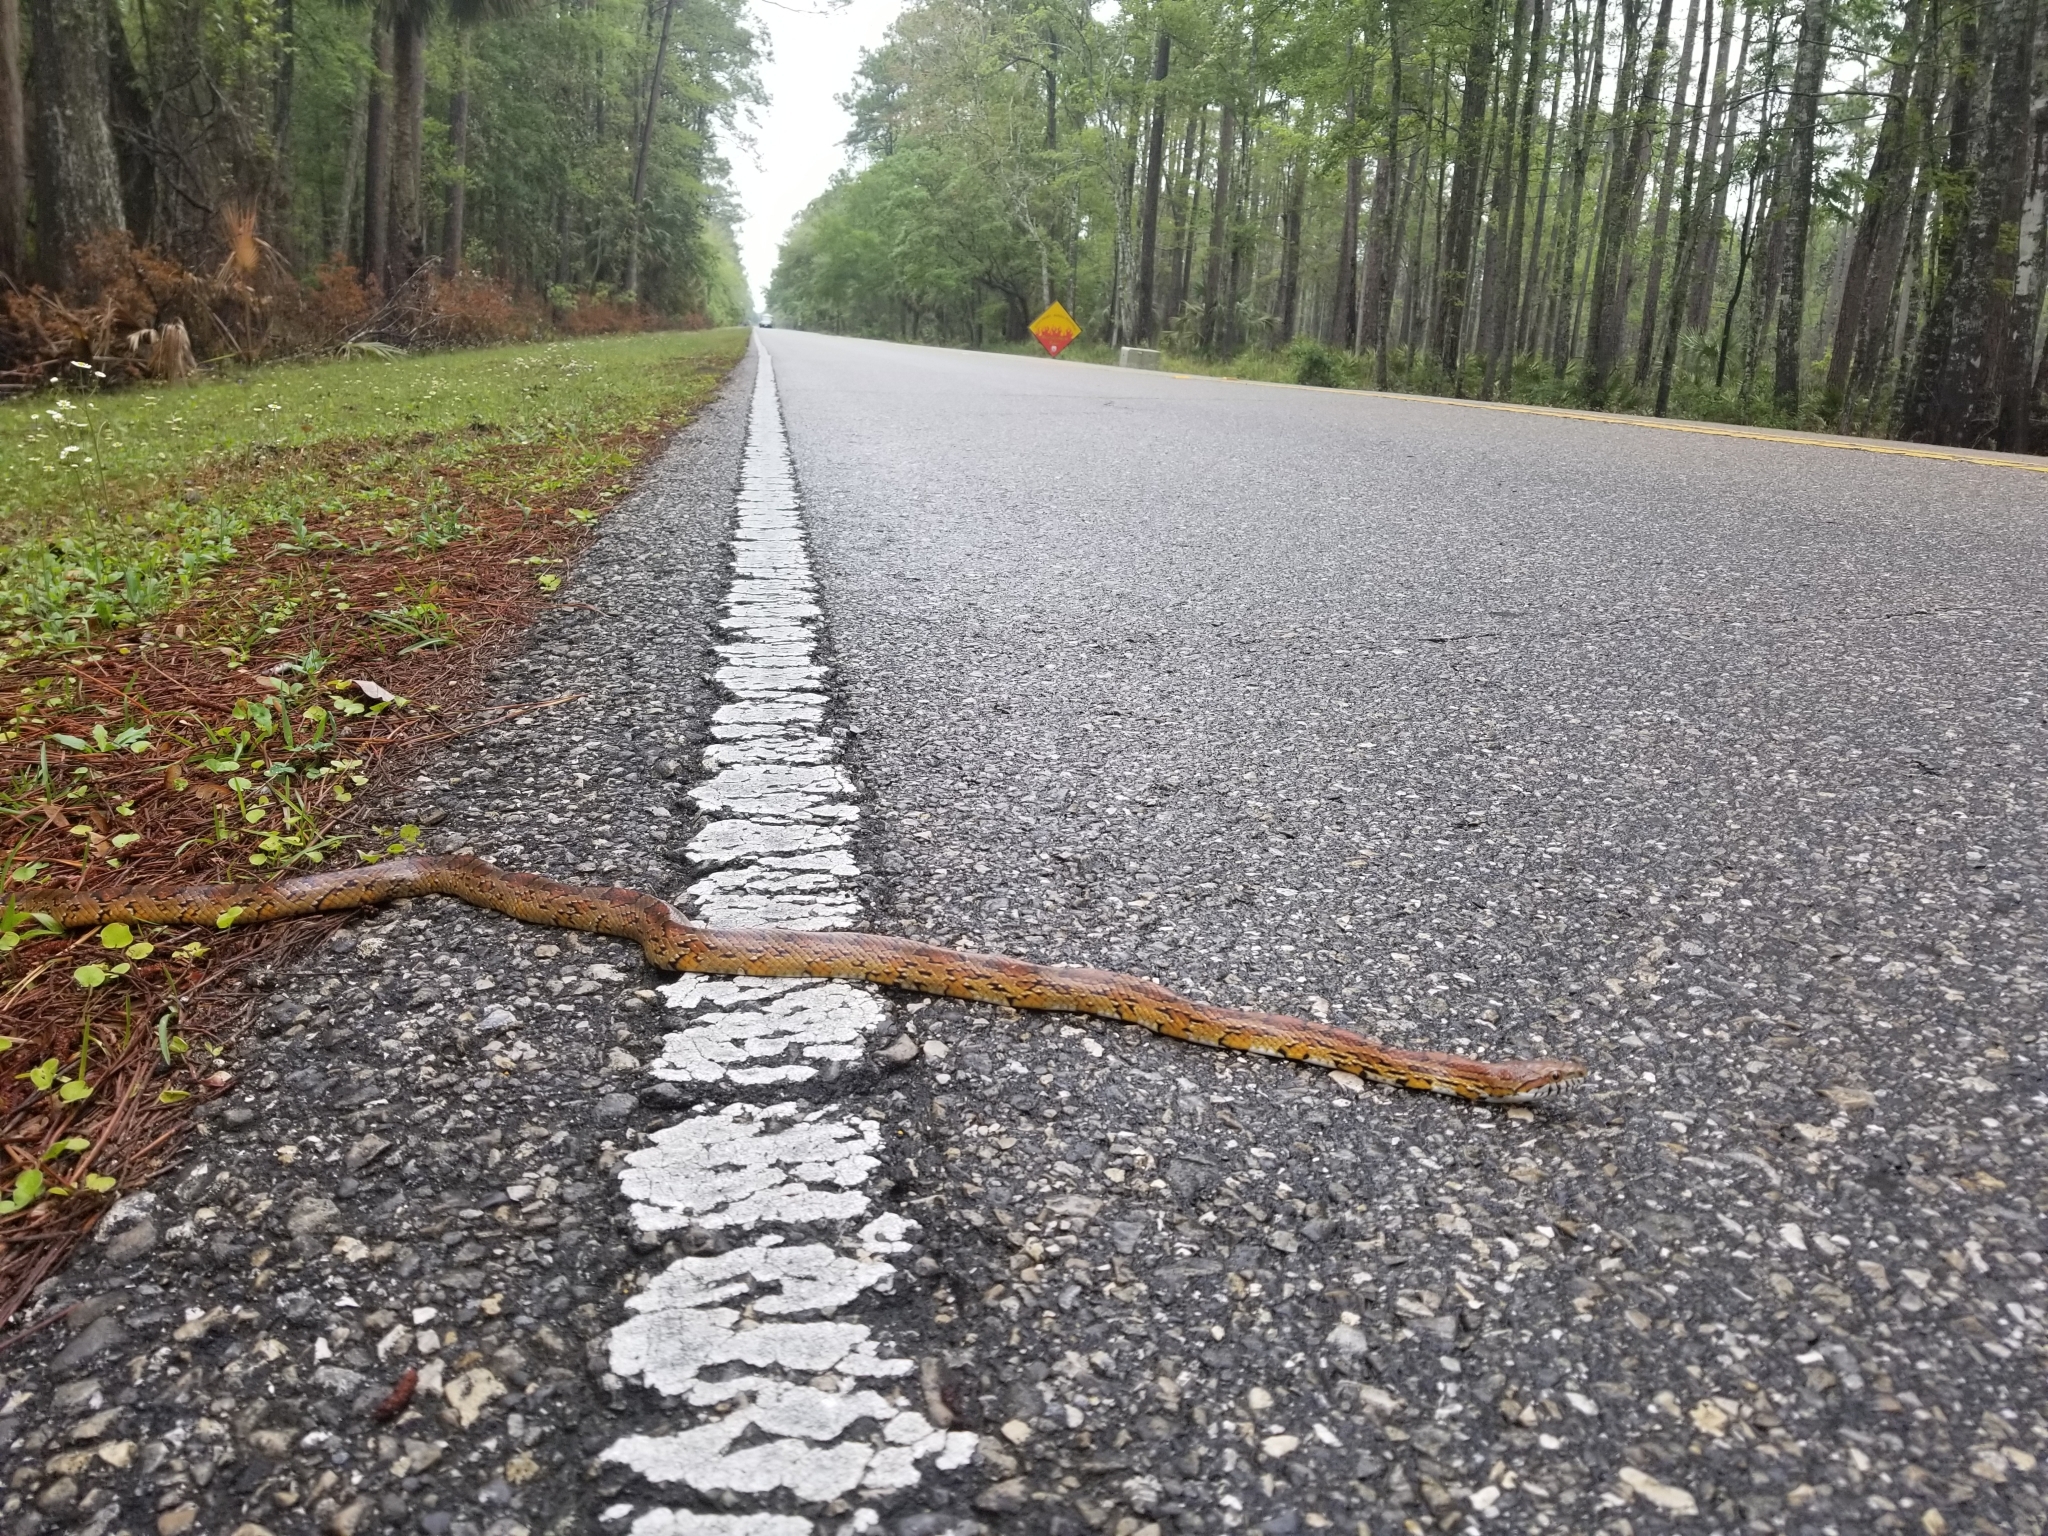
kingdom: Animalia
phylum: Chordata
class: Squamata
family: Colubridae
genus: Pantherophis
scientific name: Pantherophis guttatus
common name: Red cornsnake
